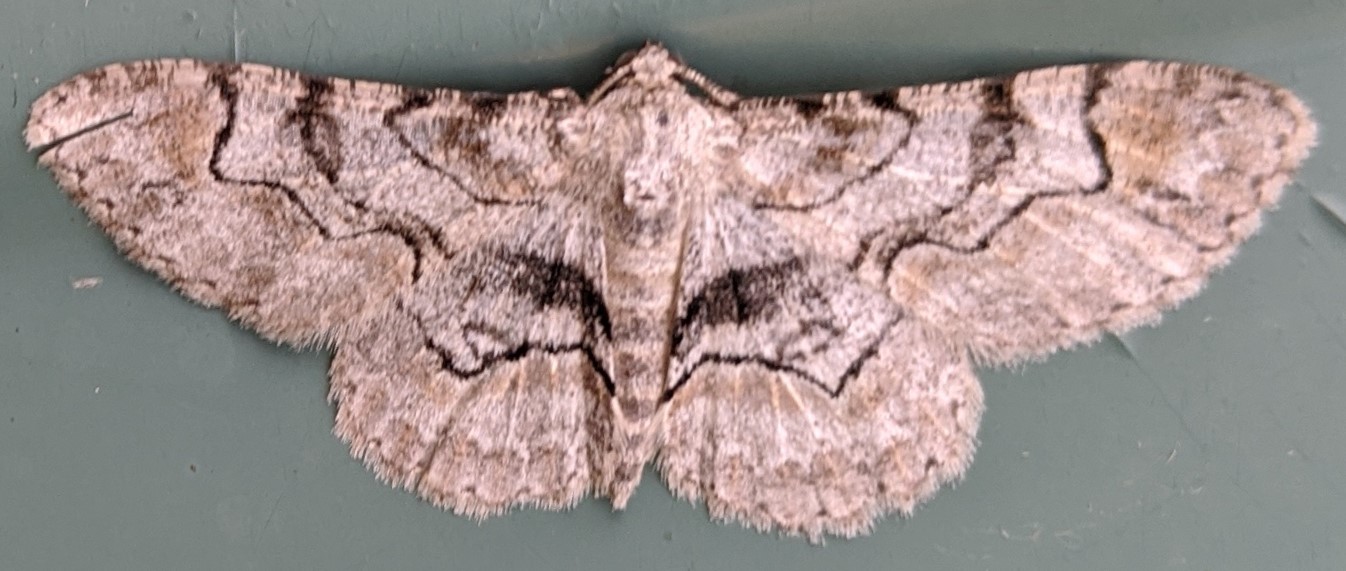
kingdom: Animalia
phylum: Arthropoda
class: Insecta
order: Lepidoptera
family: Geometridae
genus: Iridopsis
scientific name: Iridopsis larvaria
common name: Bent-line gray
